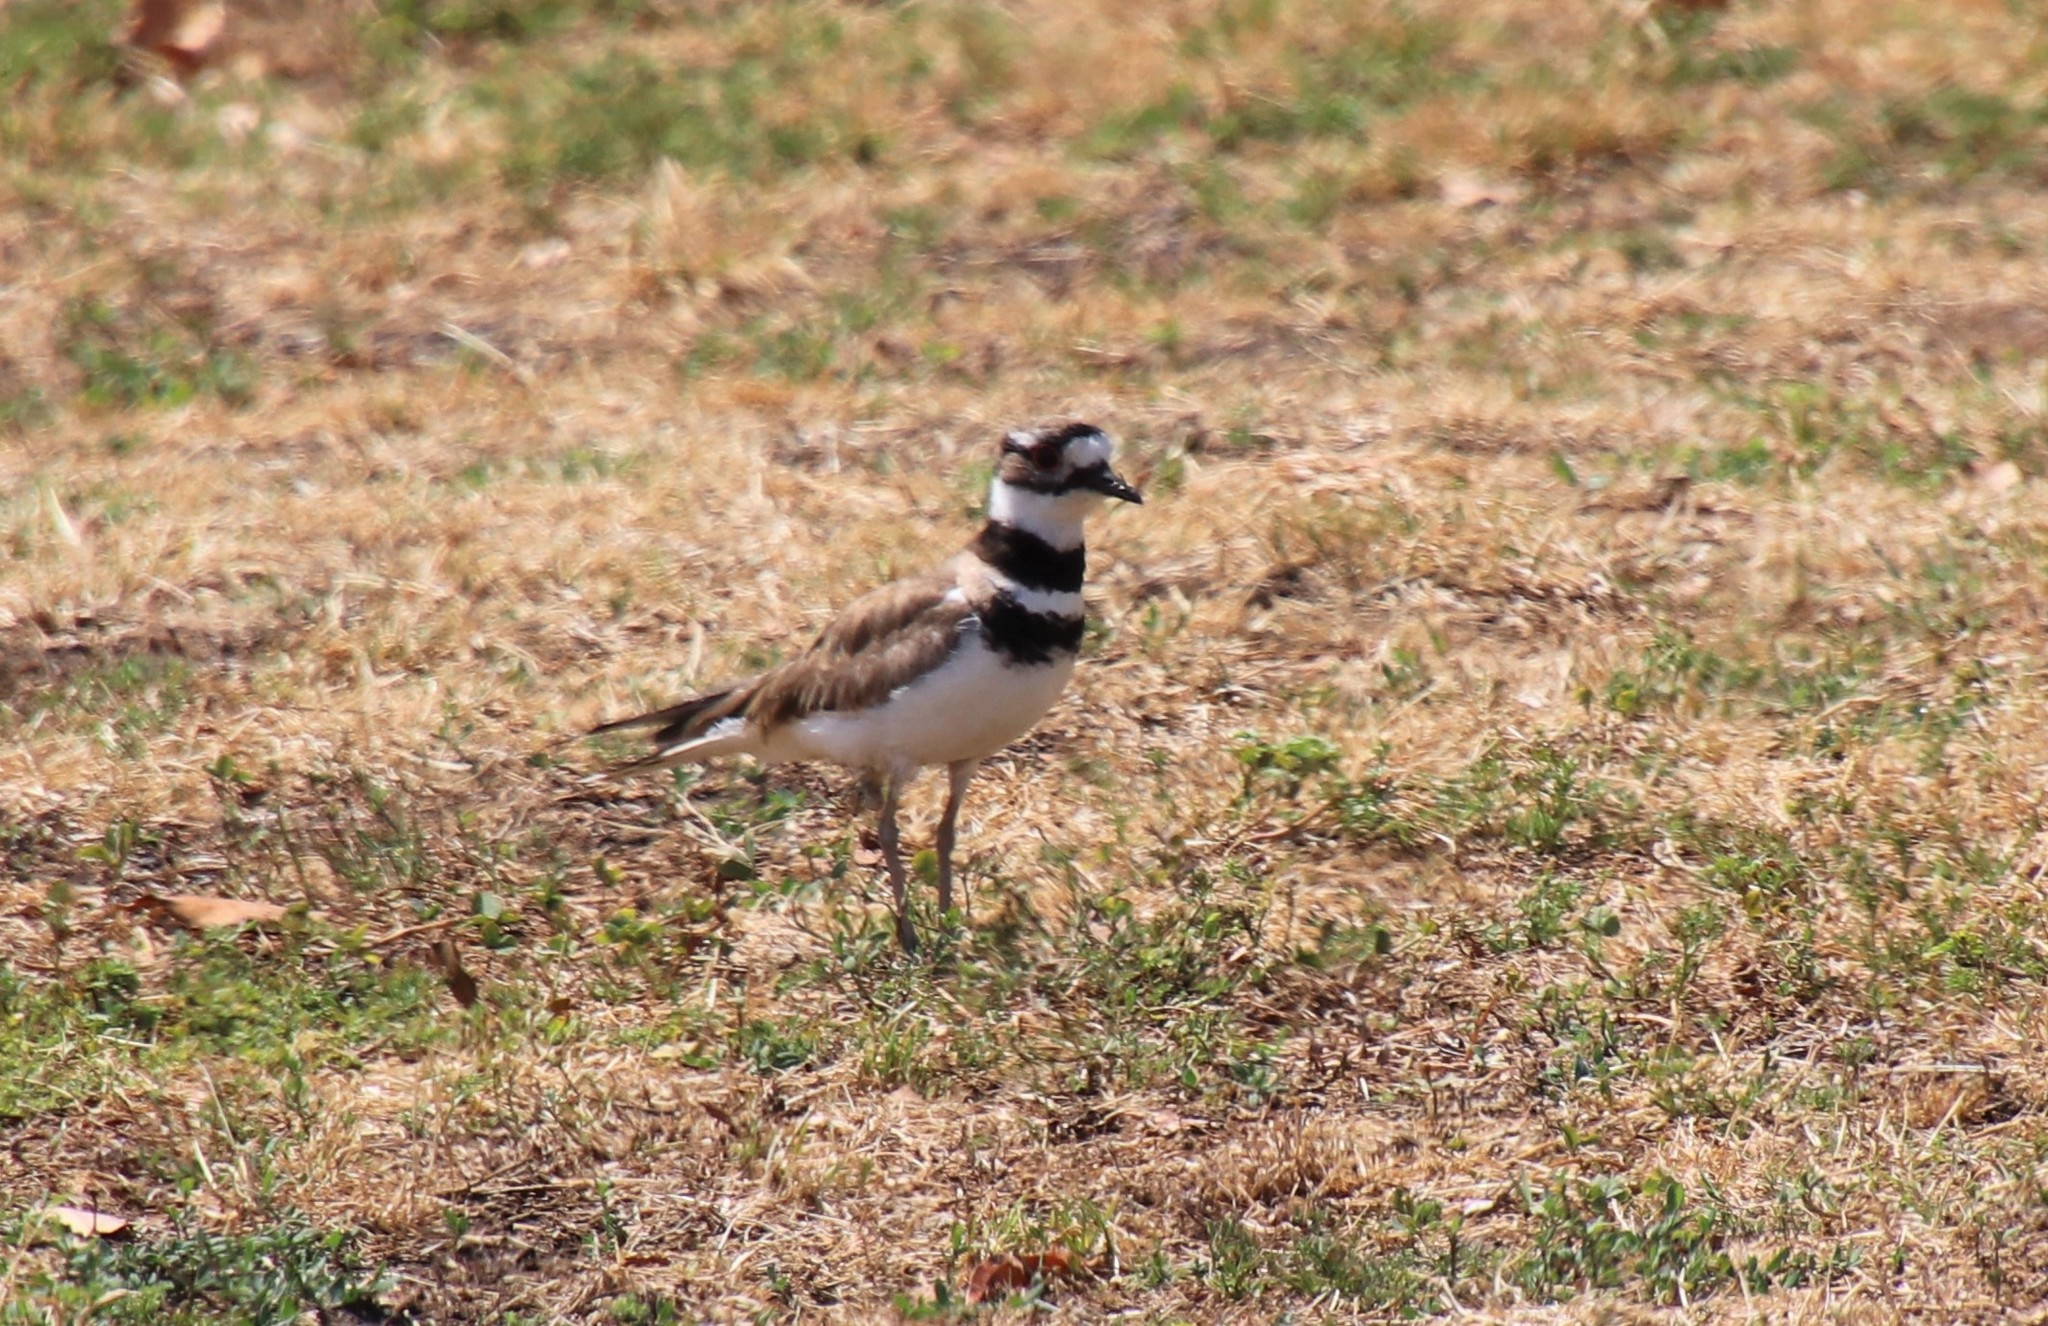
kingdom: Animalia
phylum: Chordata
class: Aves
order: Charadriiformes
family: Charadriidae
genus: Charadrius
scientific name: Charadrius vociferus
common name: Killdeer
